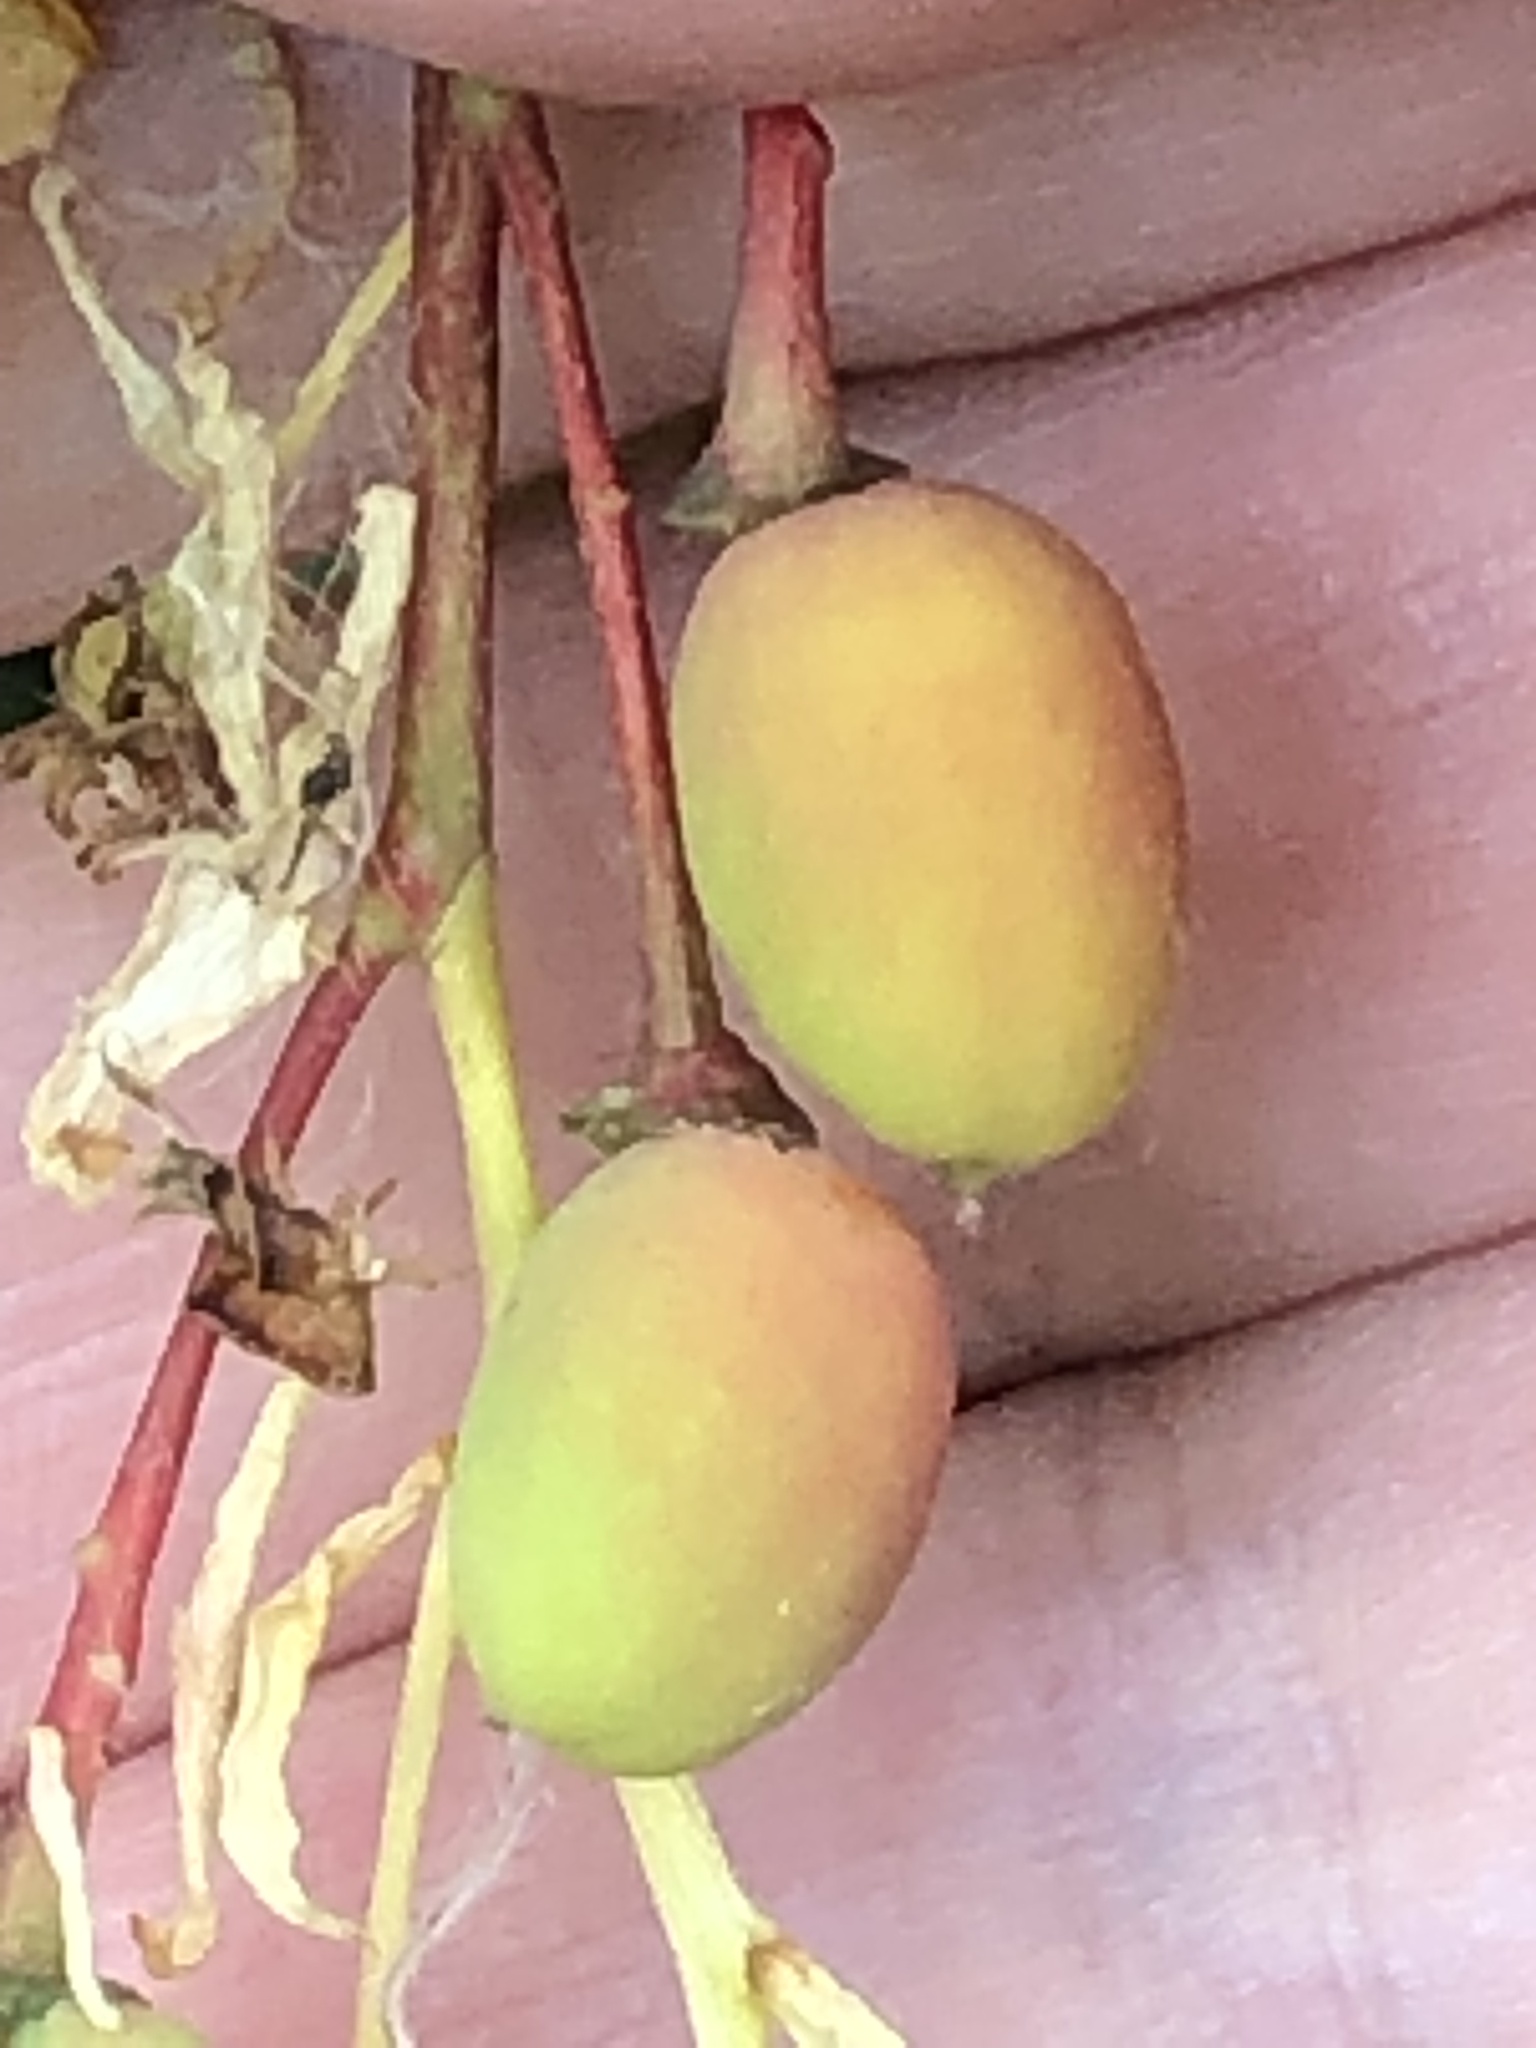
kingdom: Plantae
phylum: Tracheophyta
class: Magnoliopsida
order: Rosales
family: Rosaceae
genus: Oemleria
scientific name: Oemleria cerasiformis
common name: Osoberry
